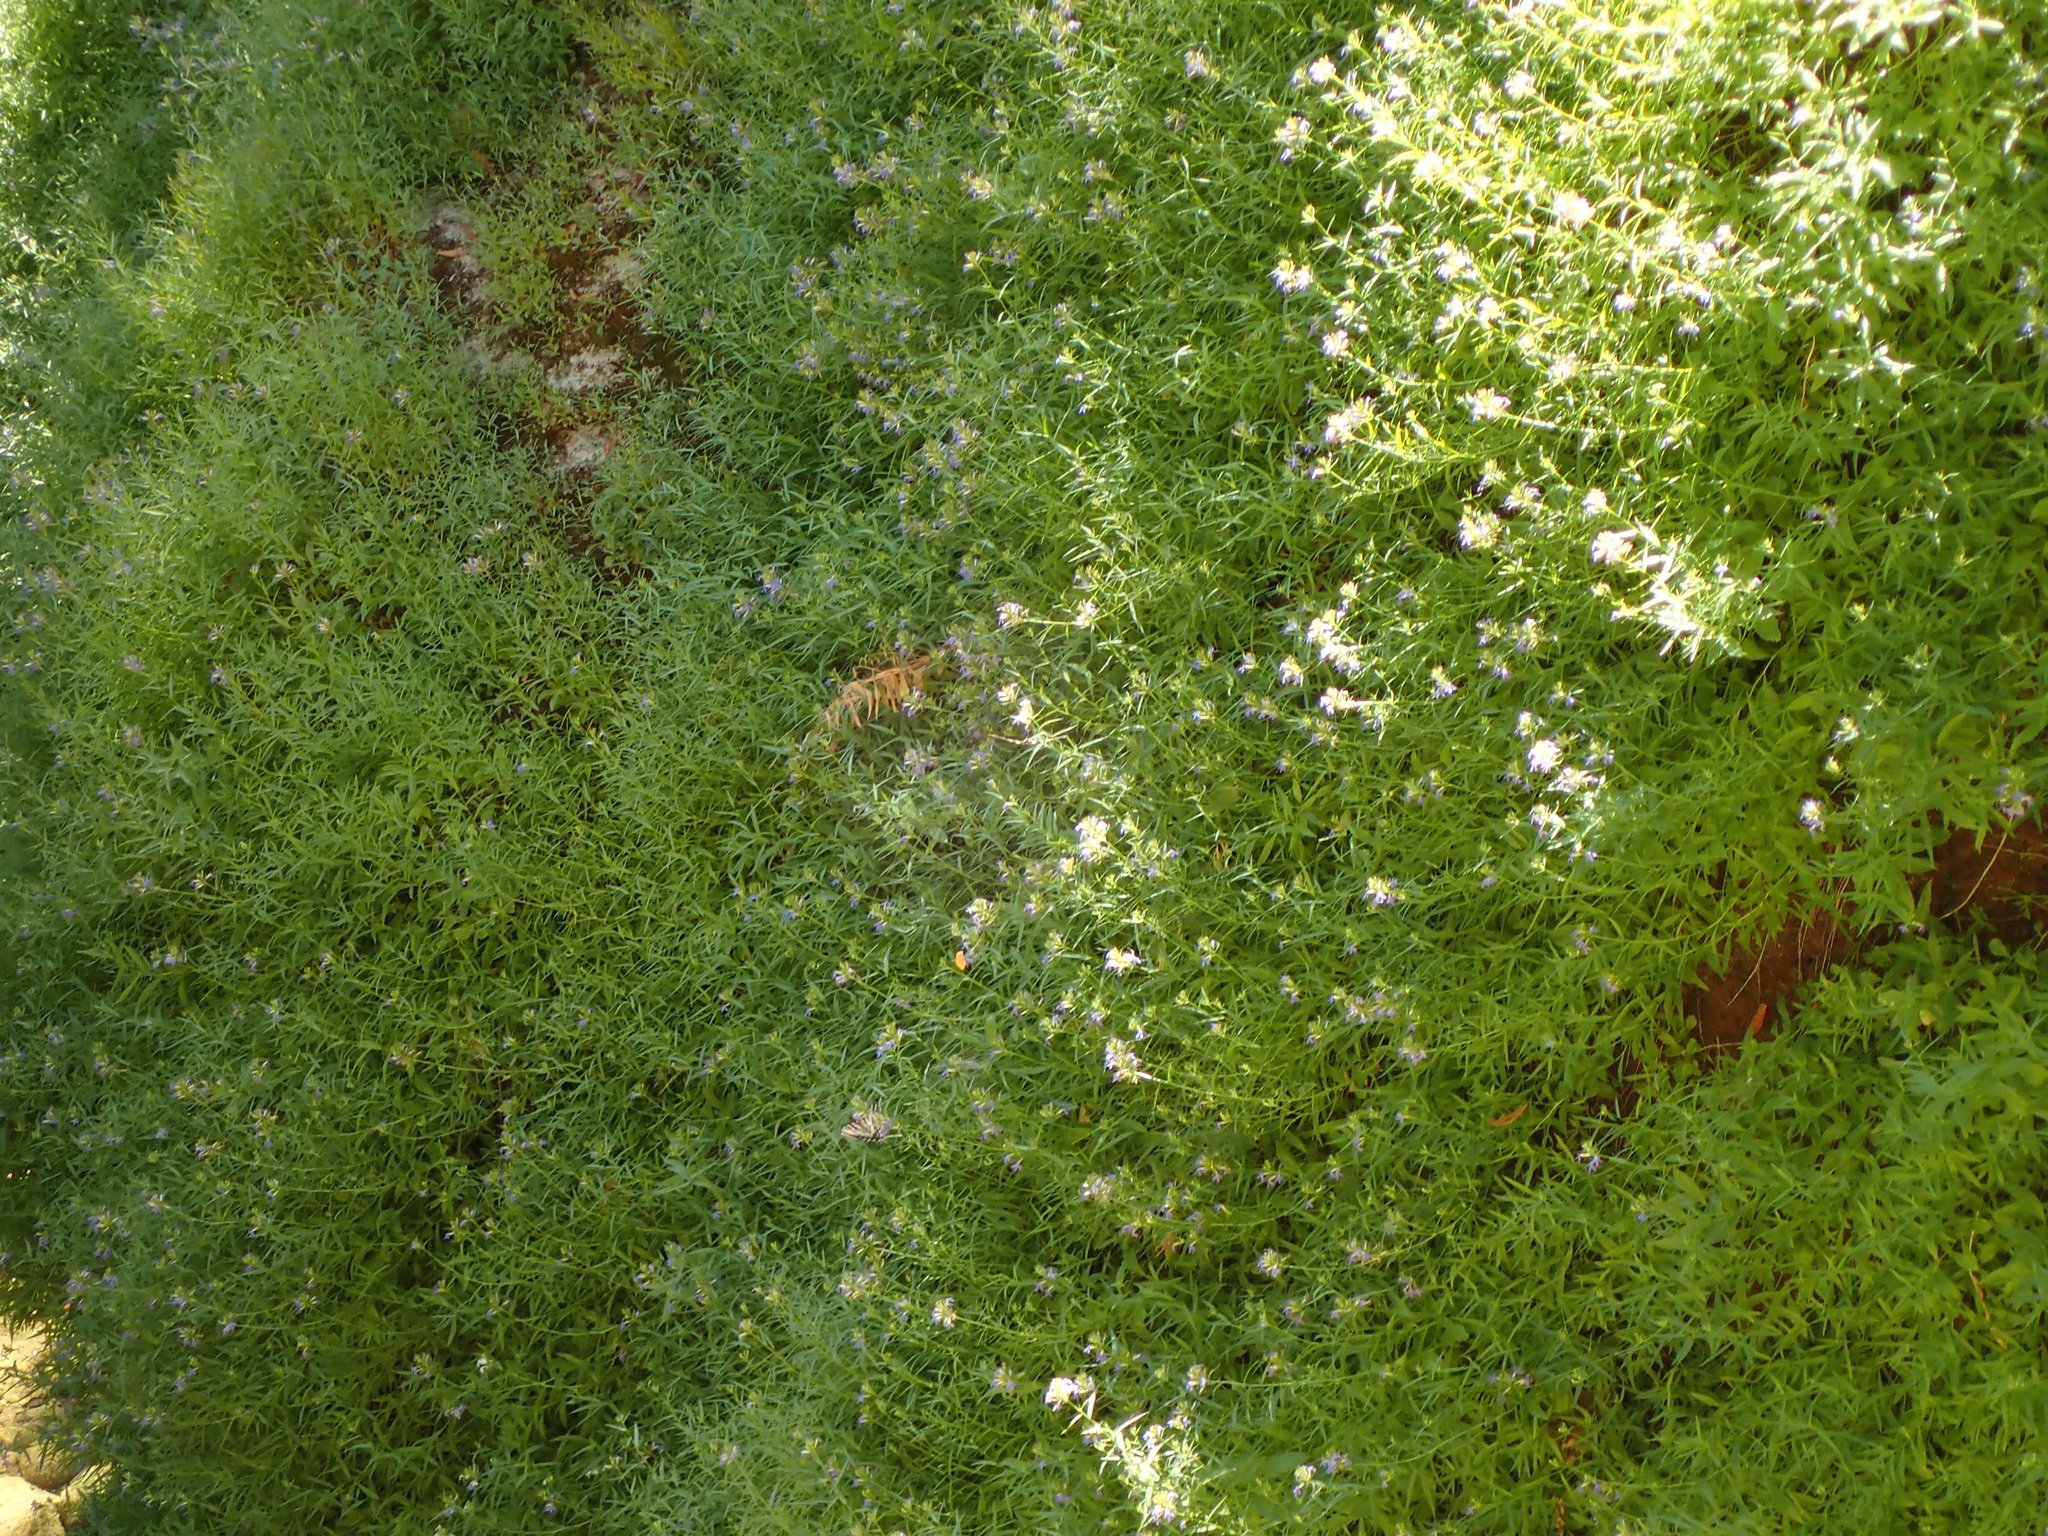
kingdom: Plantae
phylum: Tracheophyta
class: Magnoliopsida
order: Asterales
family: Campanulaceae
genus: Palmerella
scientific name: Palmerella debilis
